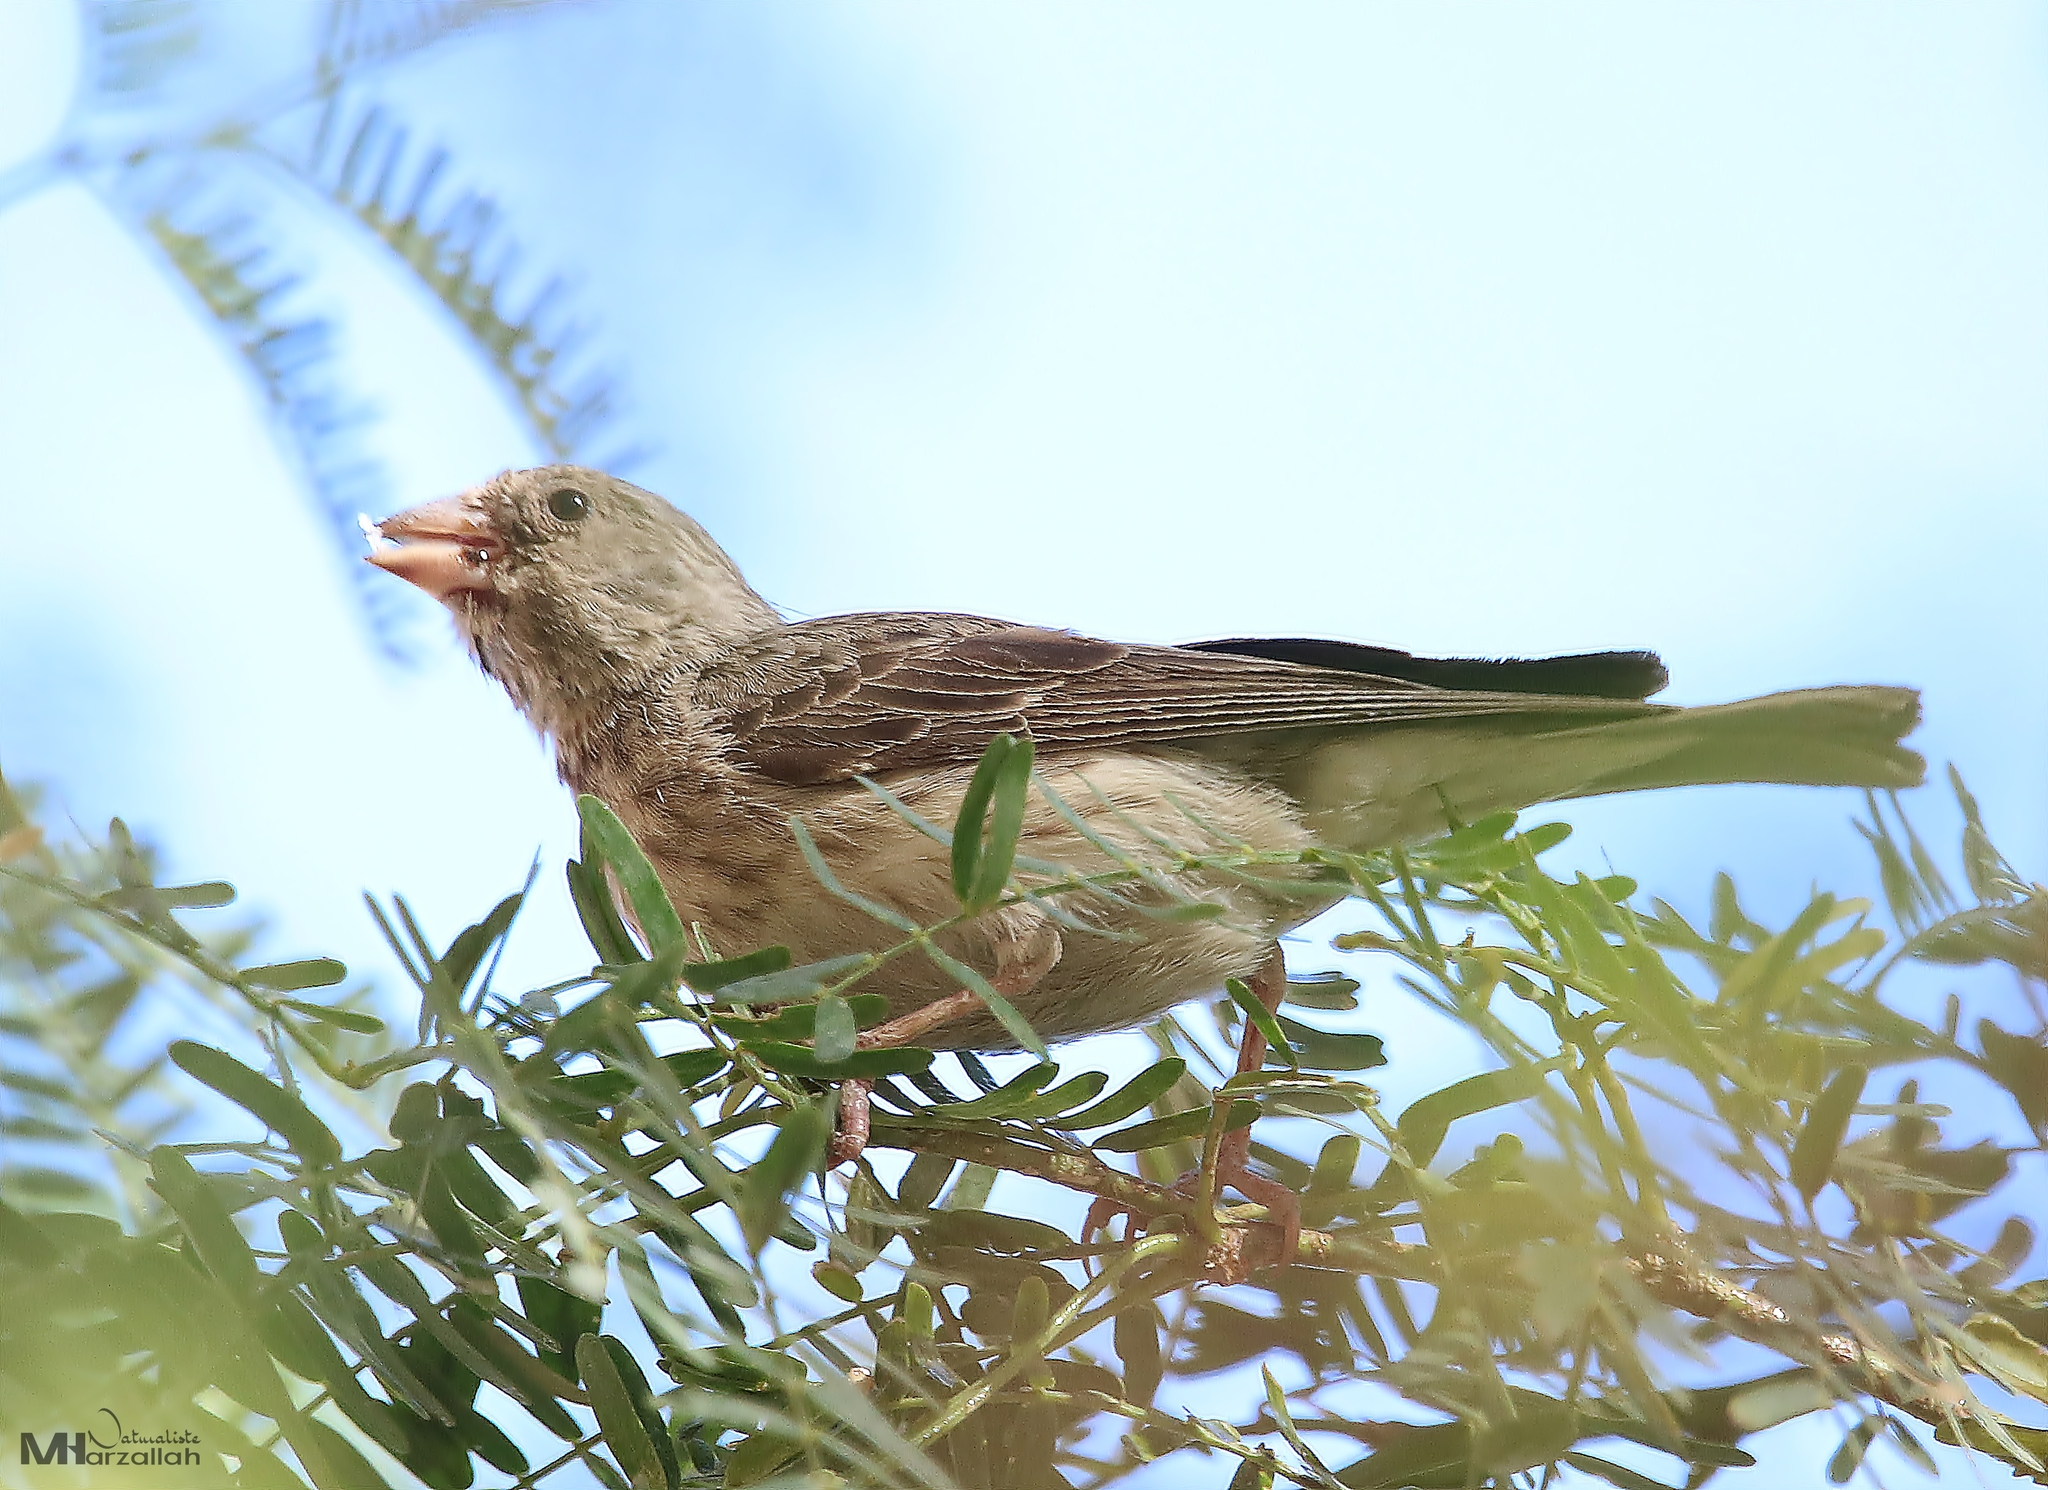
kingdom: Animalia
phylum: Chordata
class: Aves
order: Passeriformes
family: Fringillidae
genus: Crithagra
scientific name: Crithagra leucopygia
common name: White-rumped seedeater
